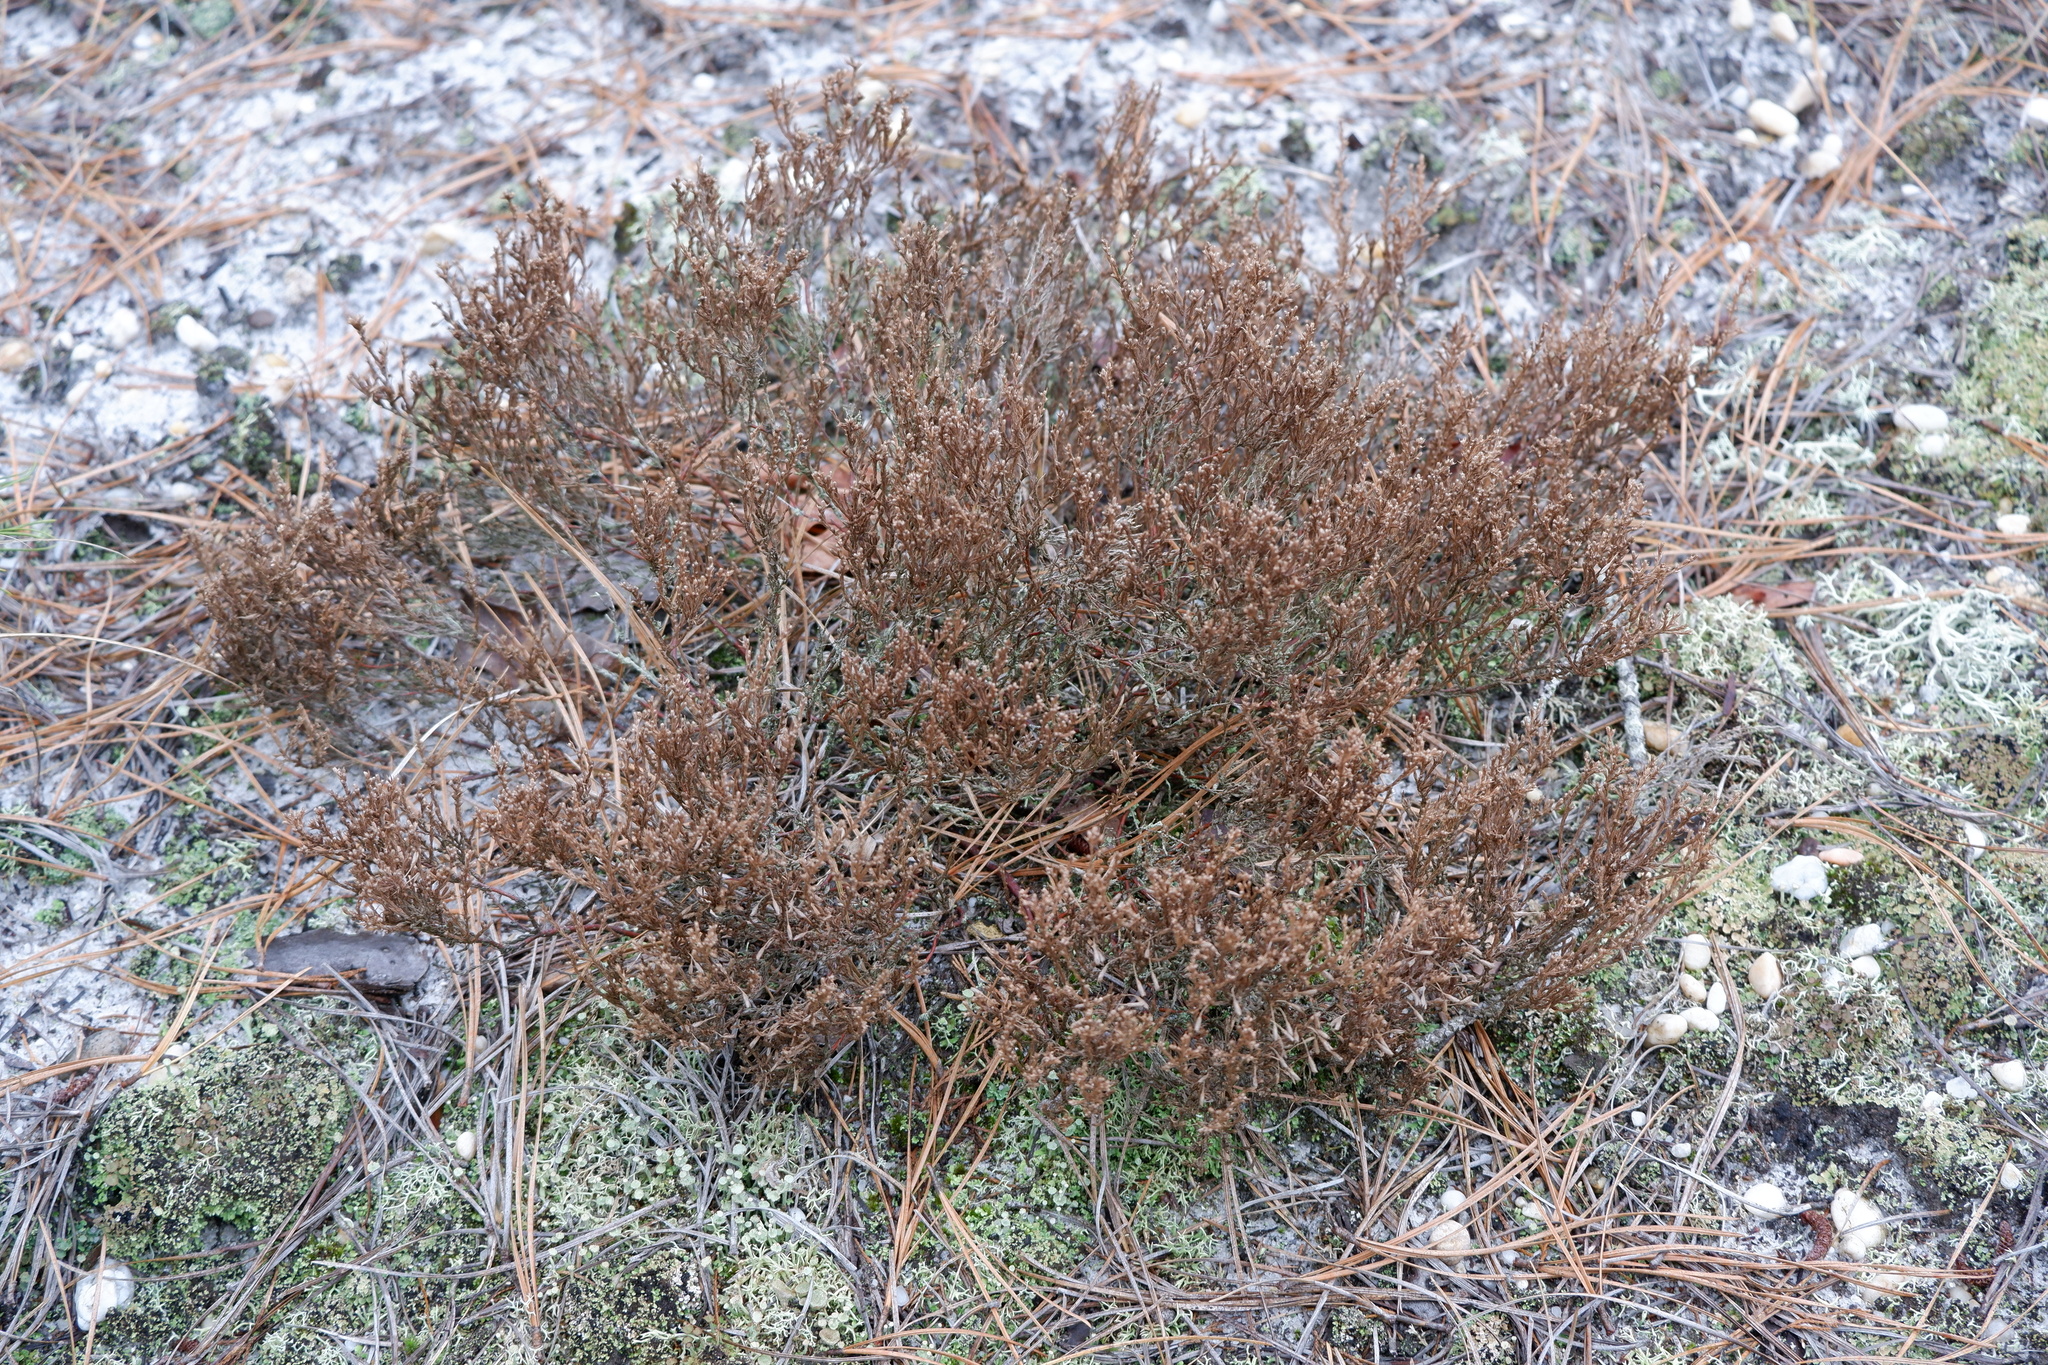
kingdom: Plantae
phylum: Tracheophyta
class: Magnoliopsida
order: Malvales
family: Cistaceae
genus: Hudsonia
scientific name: Hudsonia ericoides
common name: Golden-heather
